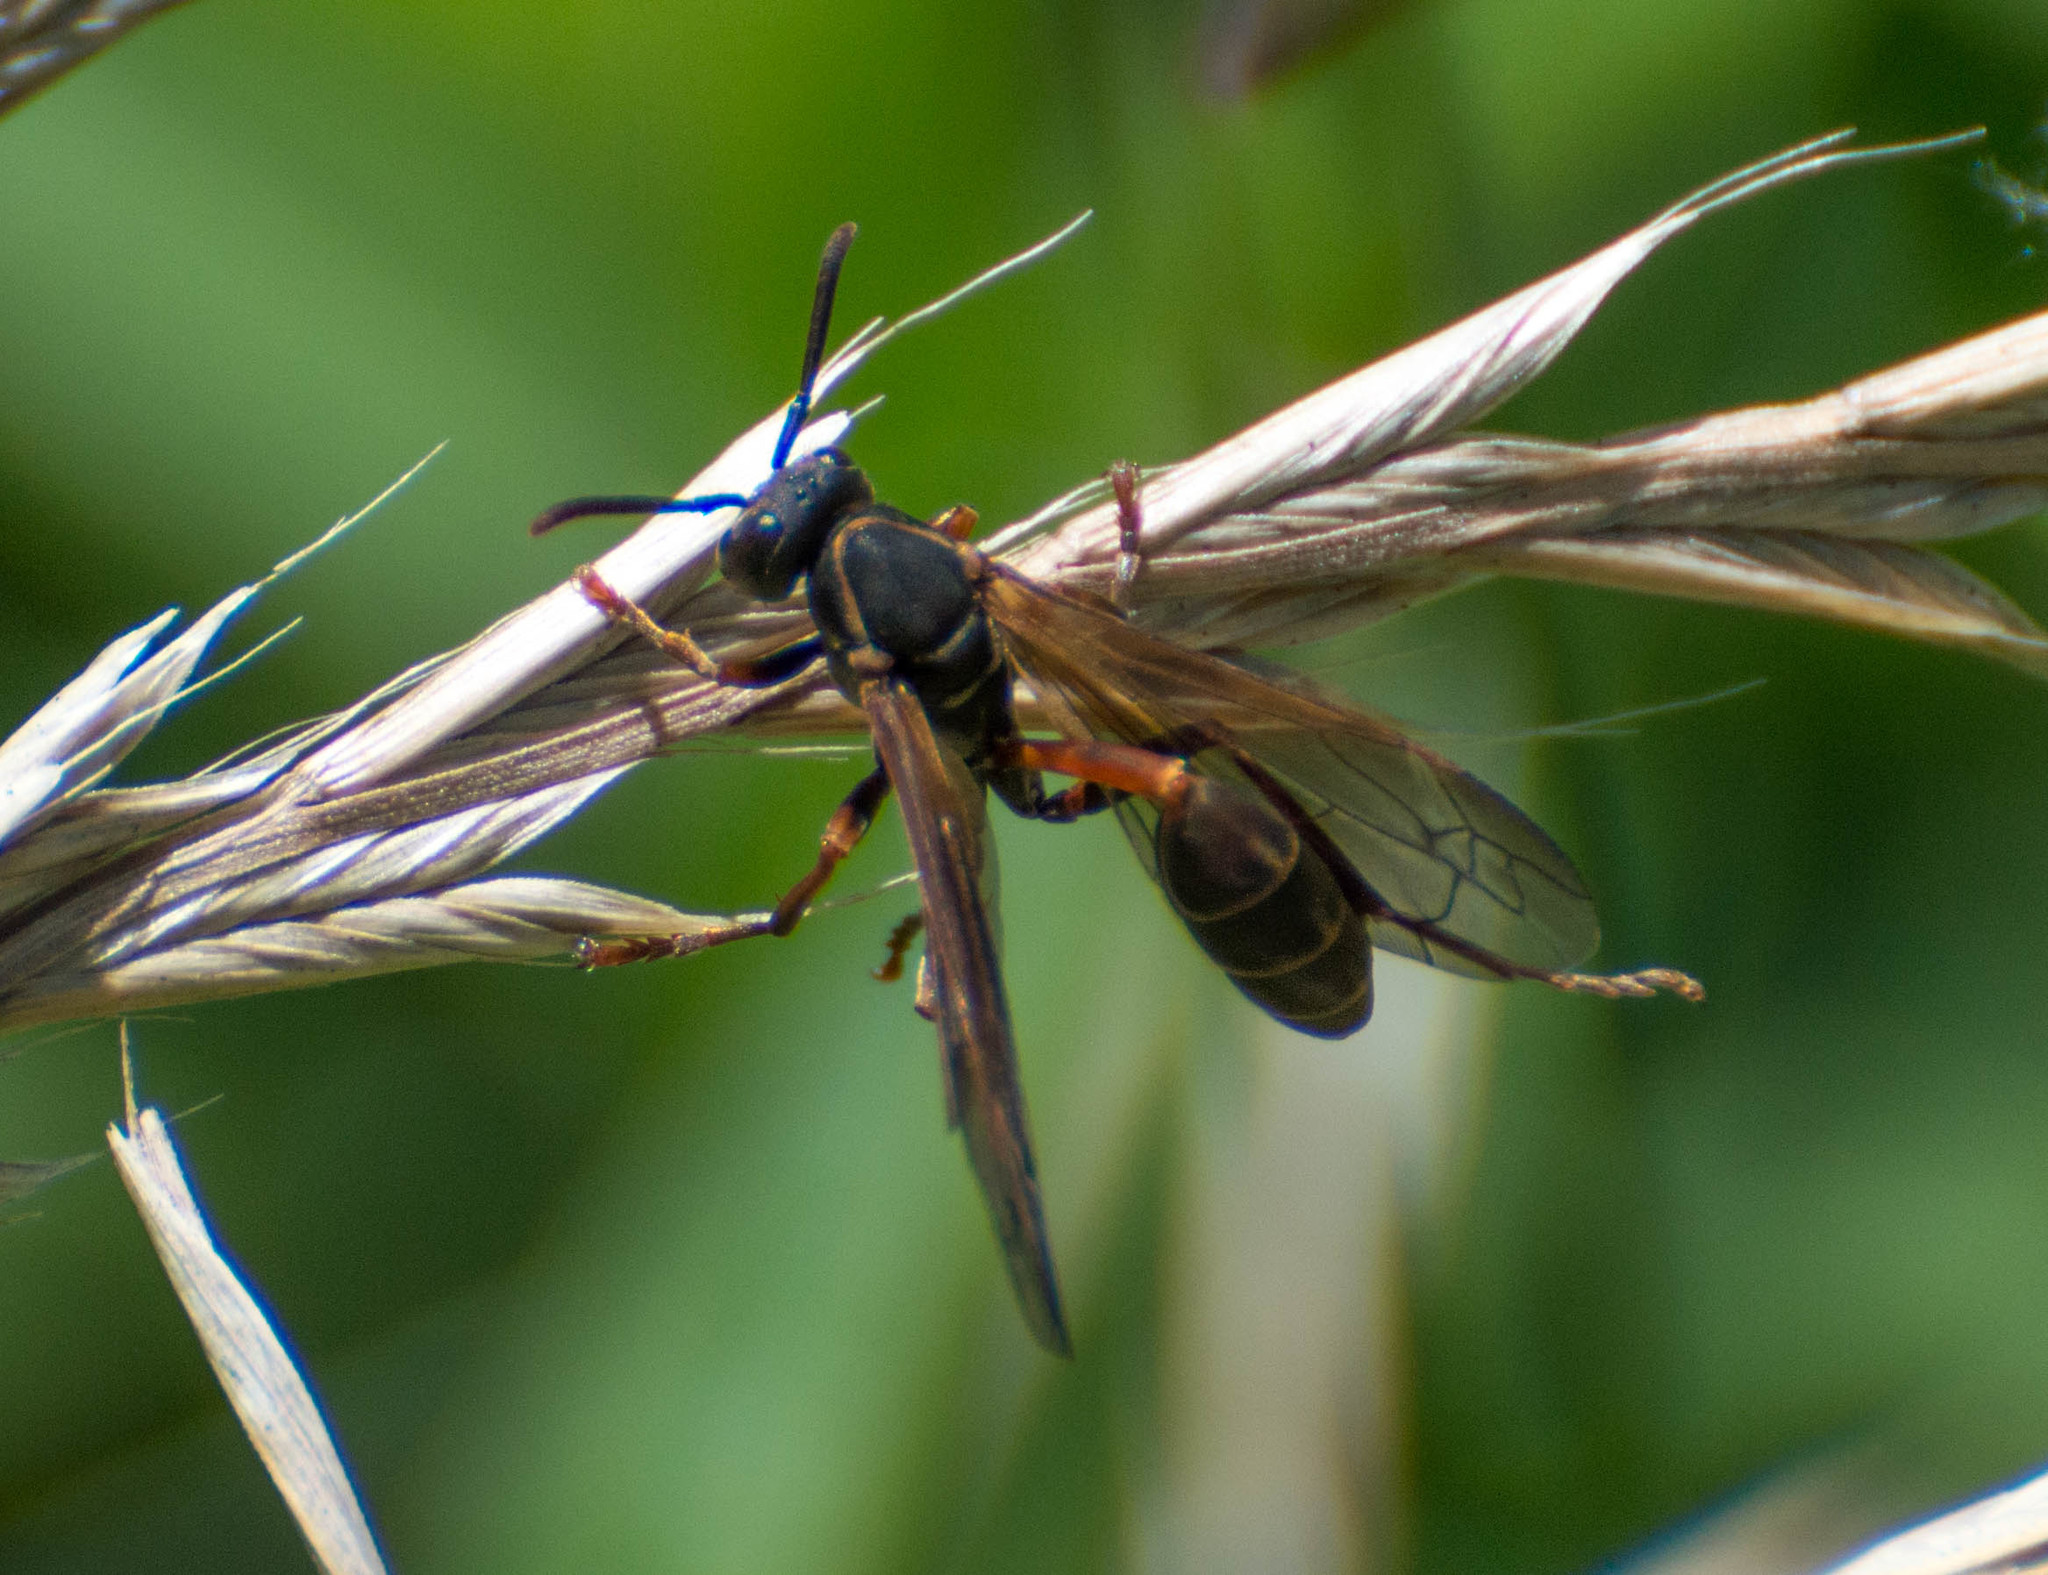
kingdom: Animalia
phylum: Arthropoda
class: Insecta
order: Hymenoptera
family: Vespidae
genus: Mischocyttarus
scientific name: Mischocyttarus drewseni
